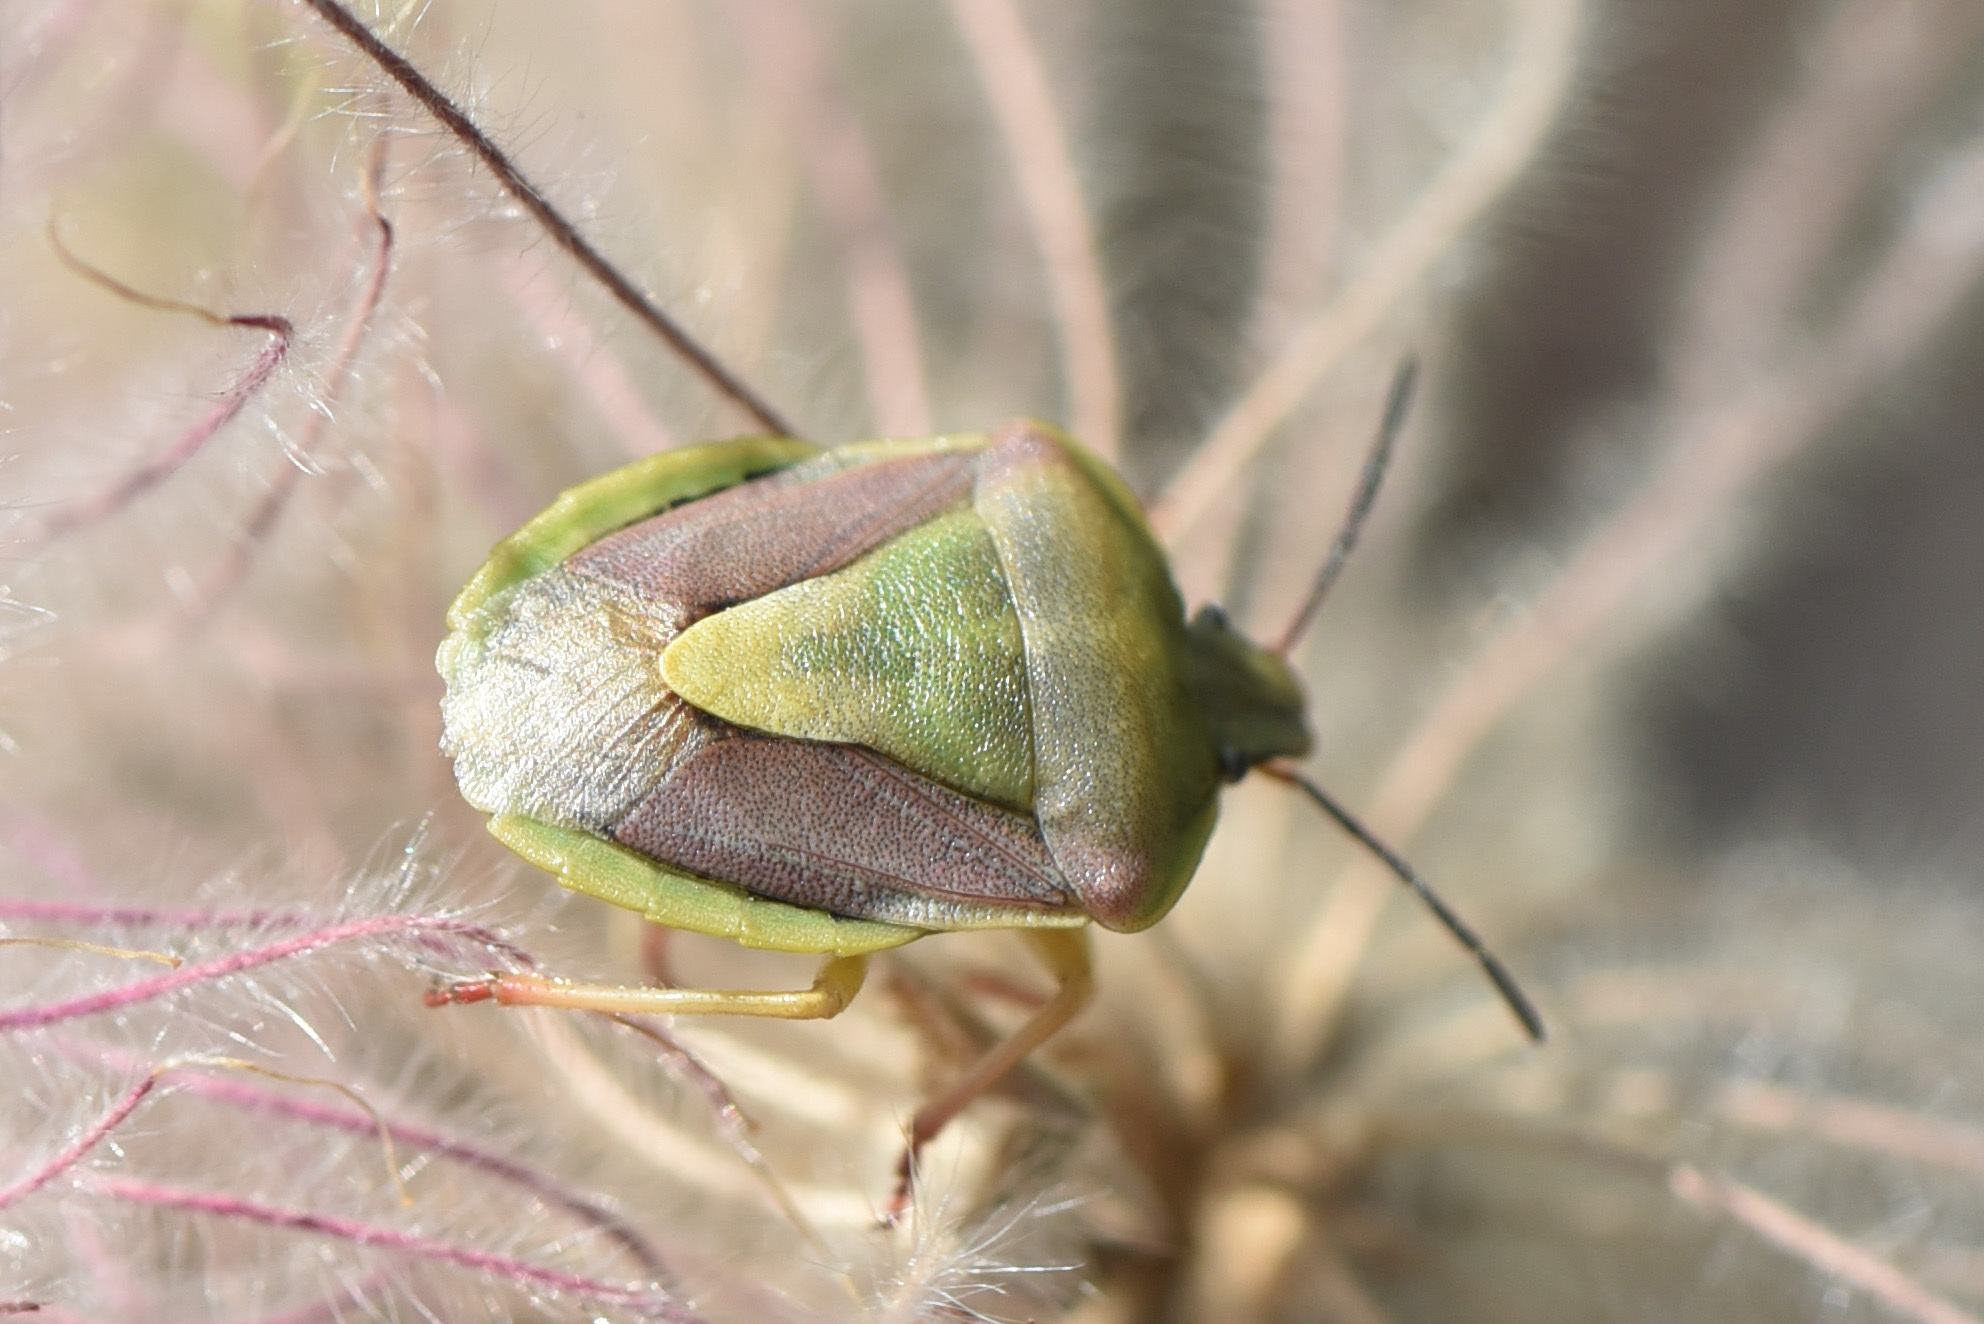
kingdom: Animalia
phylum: Arthropoda
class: Insecta
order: Hemiptera
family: Pentatomidae
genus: Antheminia
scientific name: Antheminia
